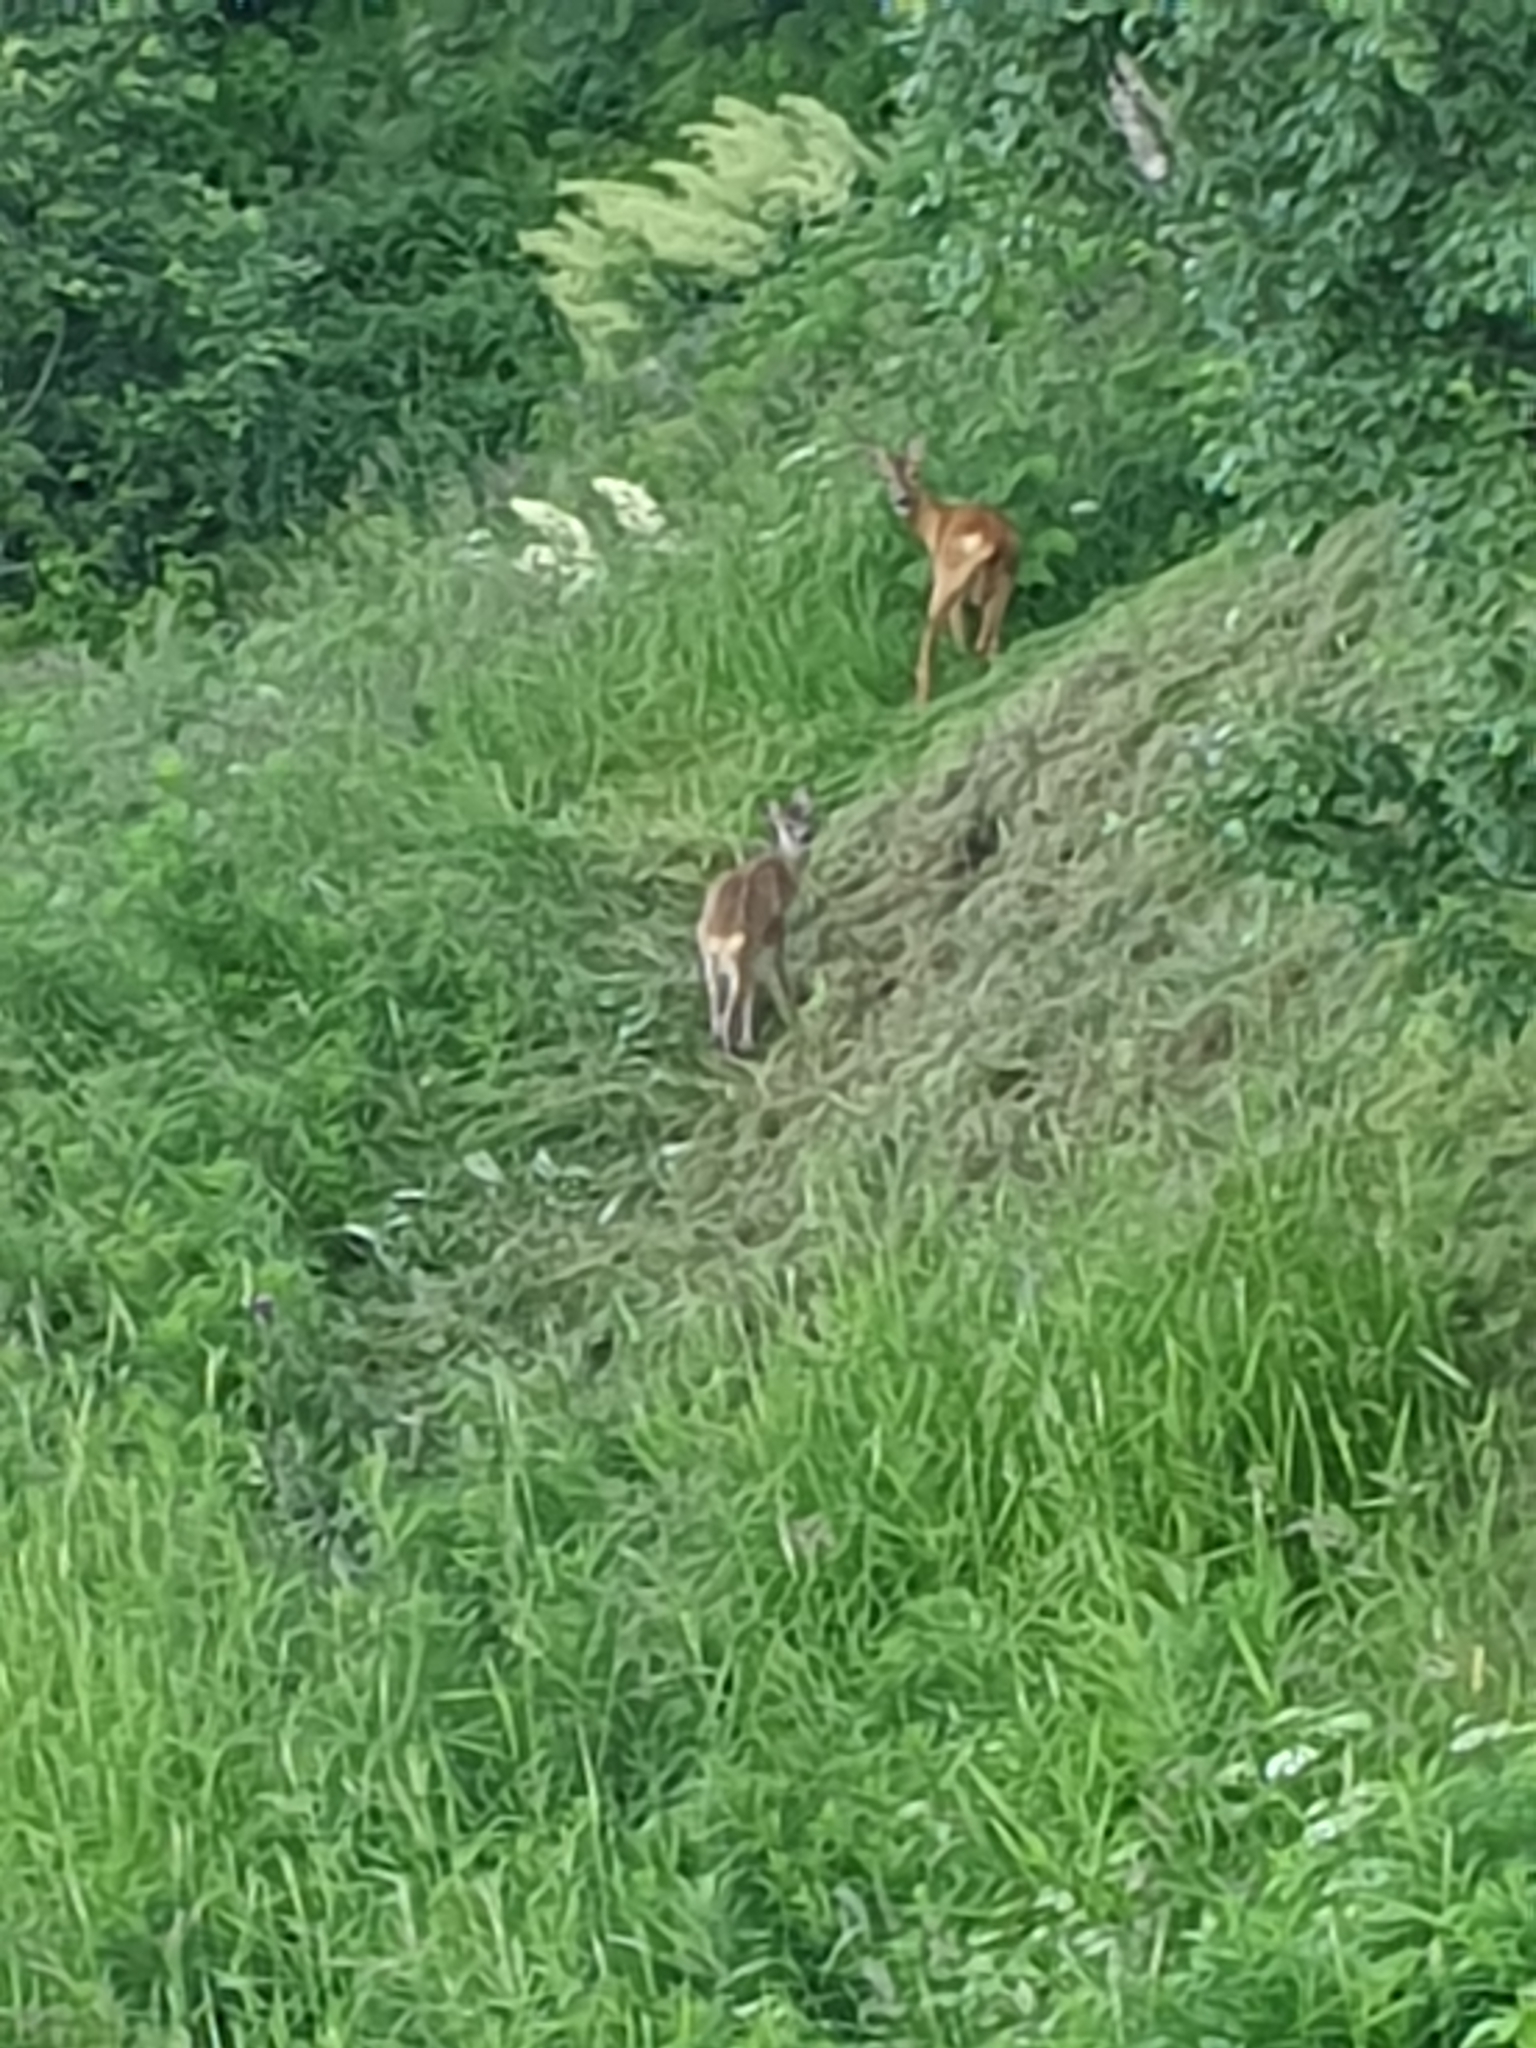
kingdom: Animalia
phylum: Chordata
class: Mammalia
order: Artiodactyla
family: Cervidae
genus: Capreolus
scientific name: Capreolus capreolus
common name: Western roe deer
